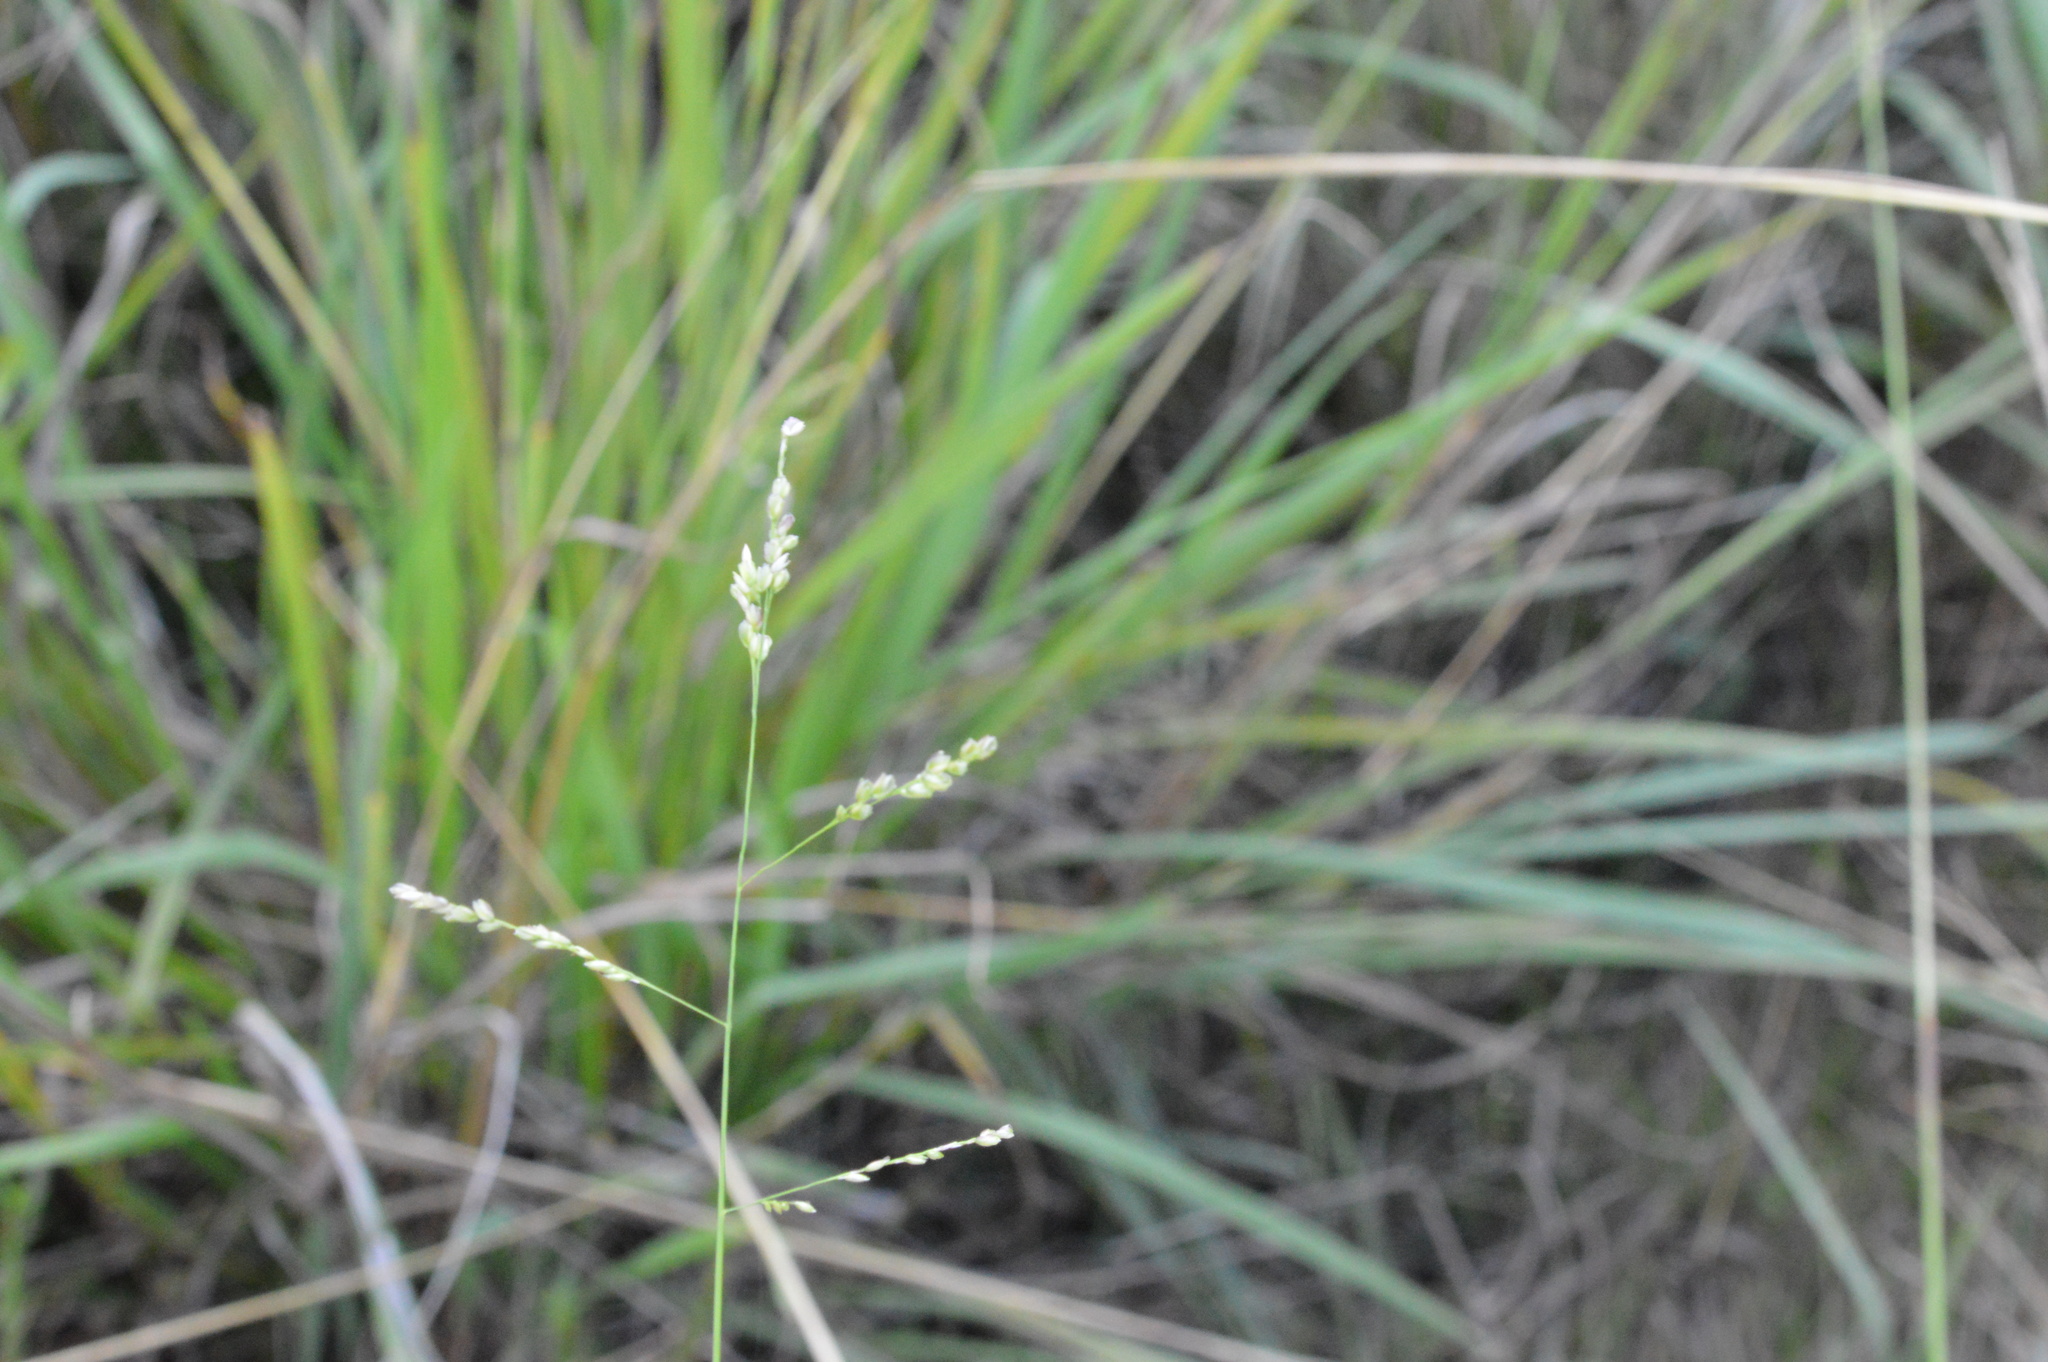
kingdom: Plantae
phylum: Tracheophyta
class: Liliopsida
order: Poales
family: Poaceae
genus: Steinchisma
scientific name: Steinchisma hians
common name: Gaping panic grass
